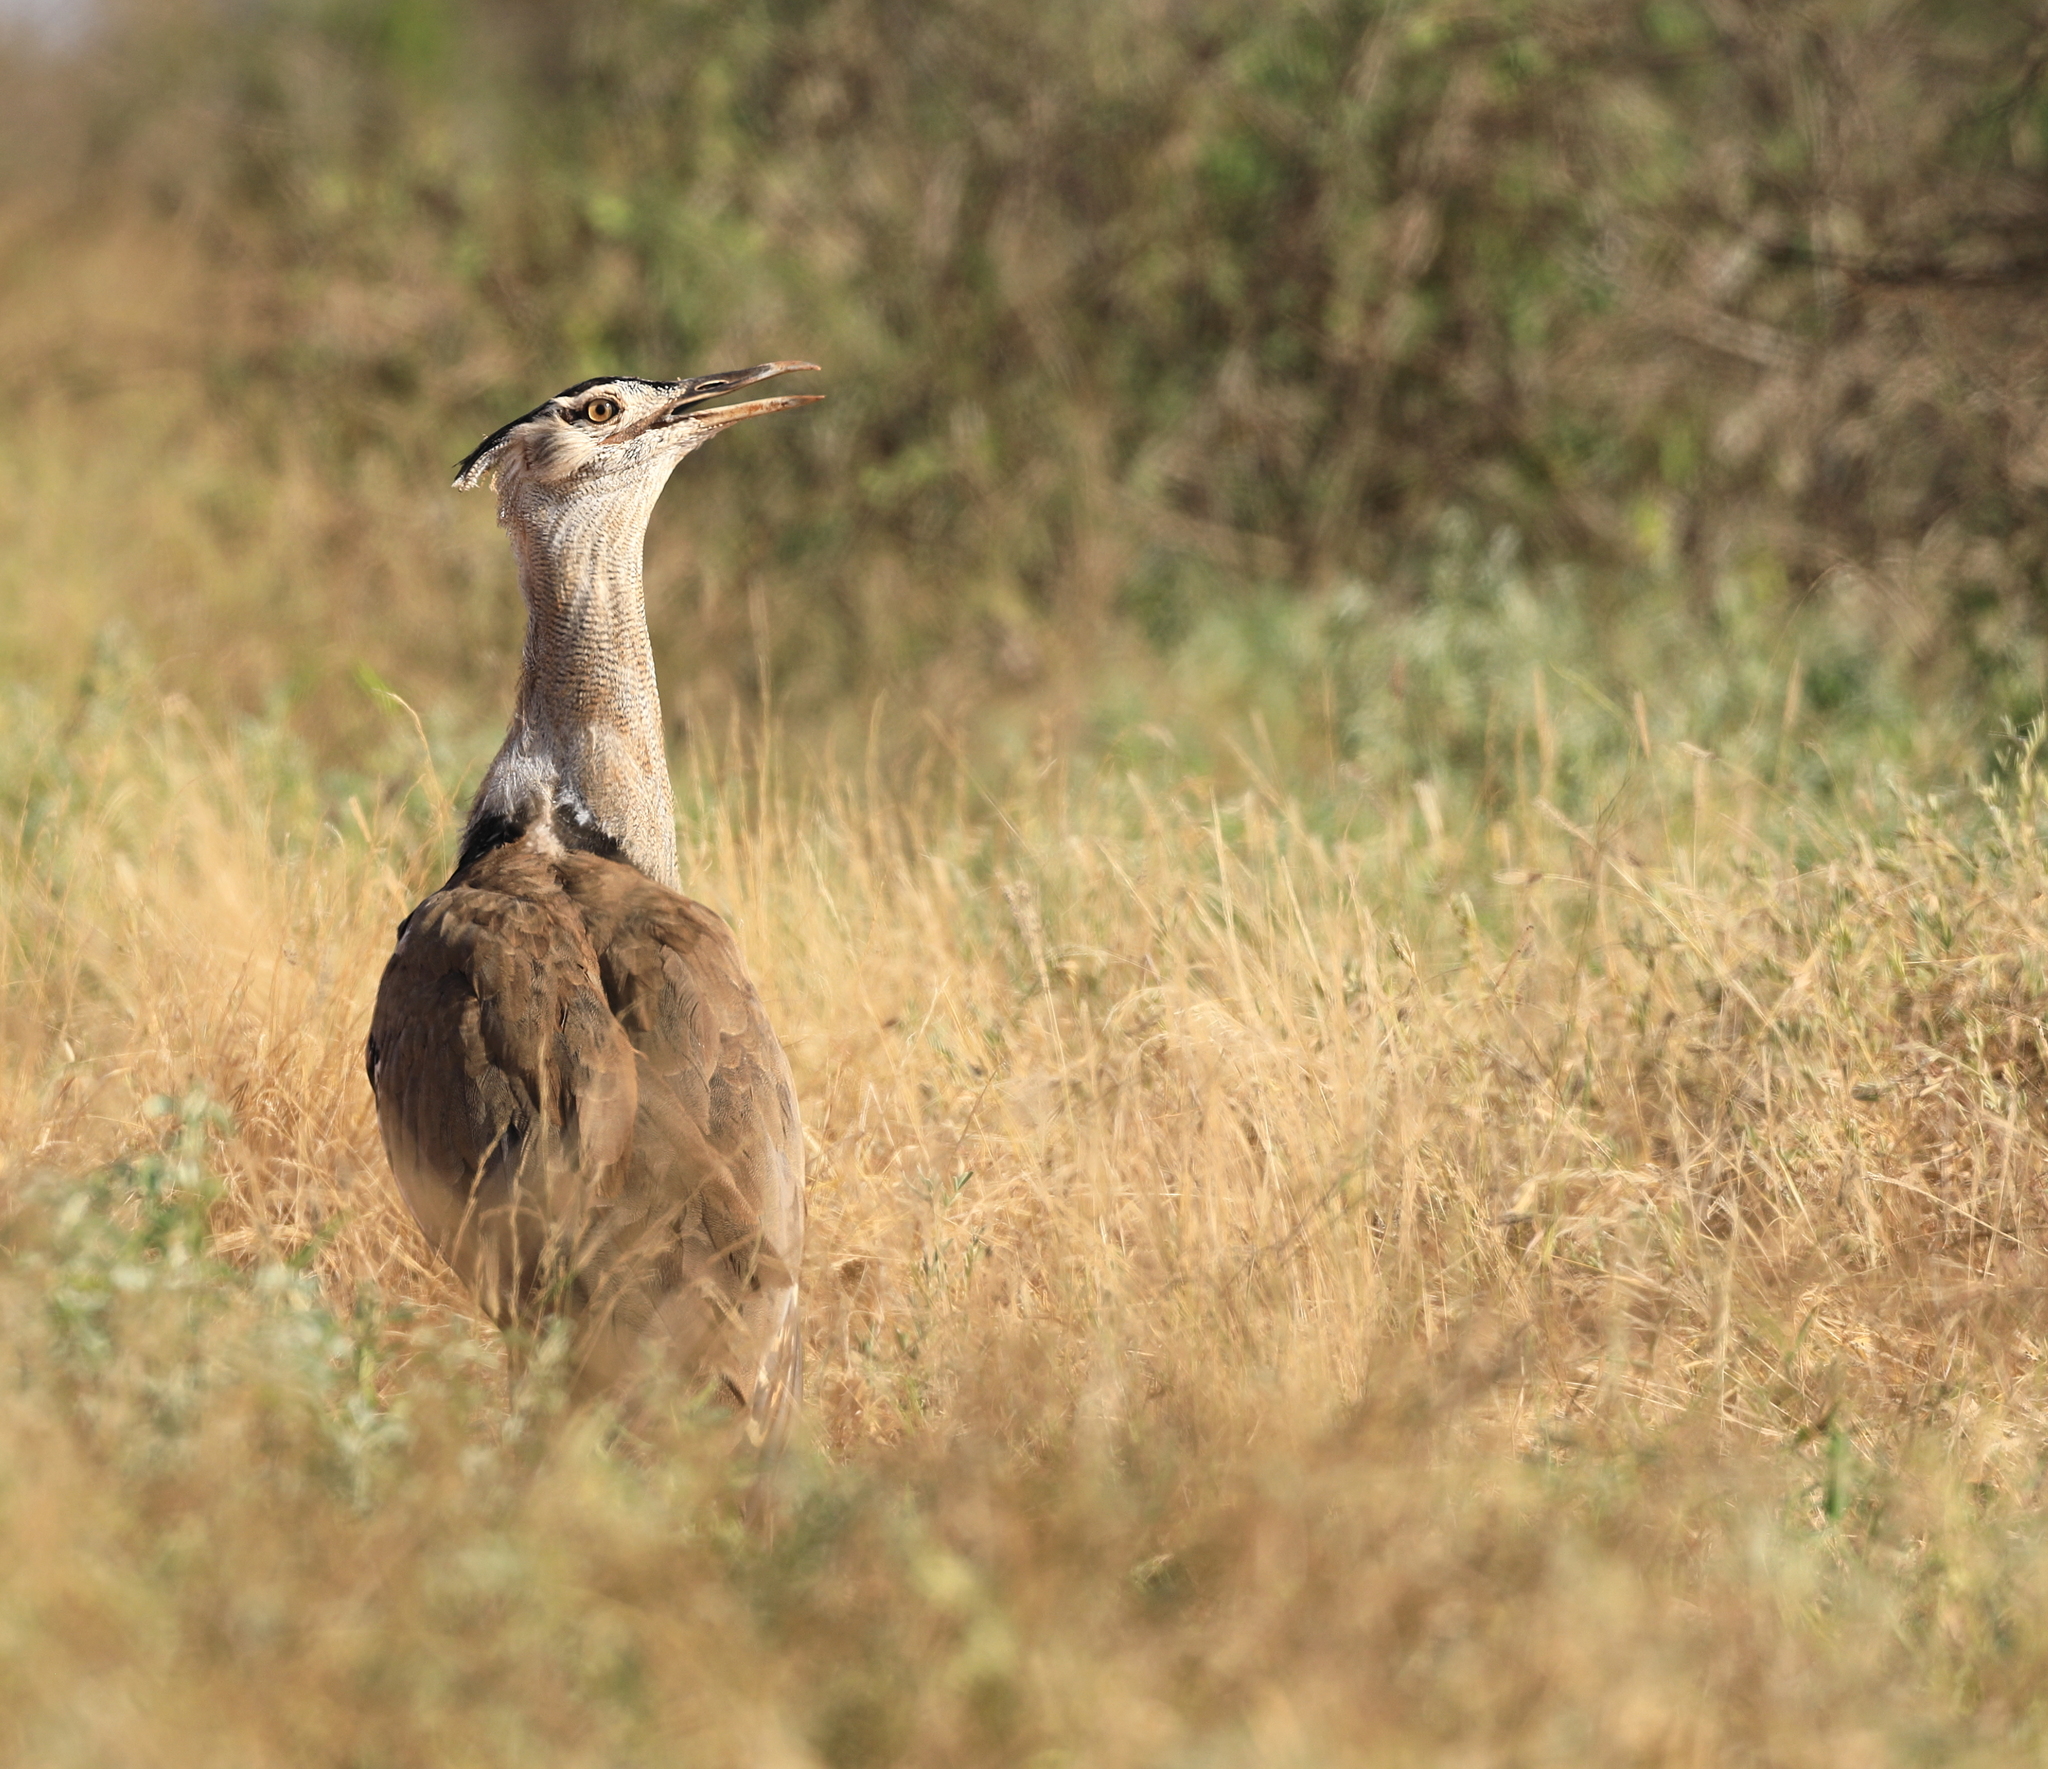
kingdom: Animalia
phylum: Chordata
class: Aves
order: Otidiformes
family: Otididae
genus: Ardeotis
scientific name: Ardeotis kori
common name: Kori bustard
